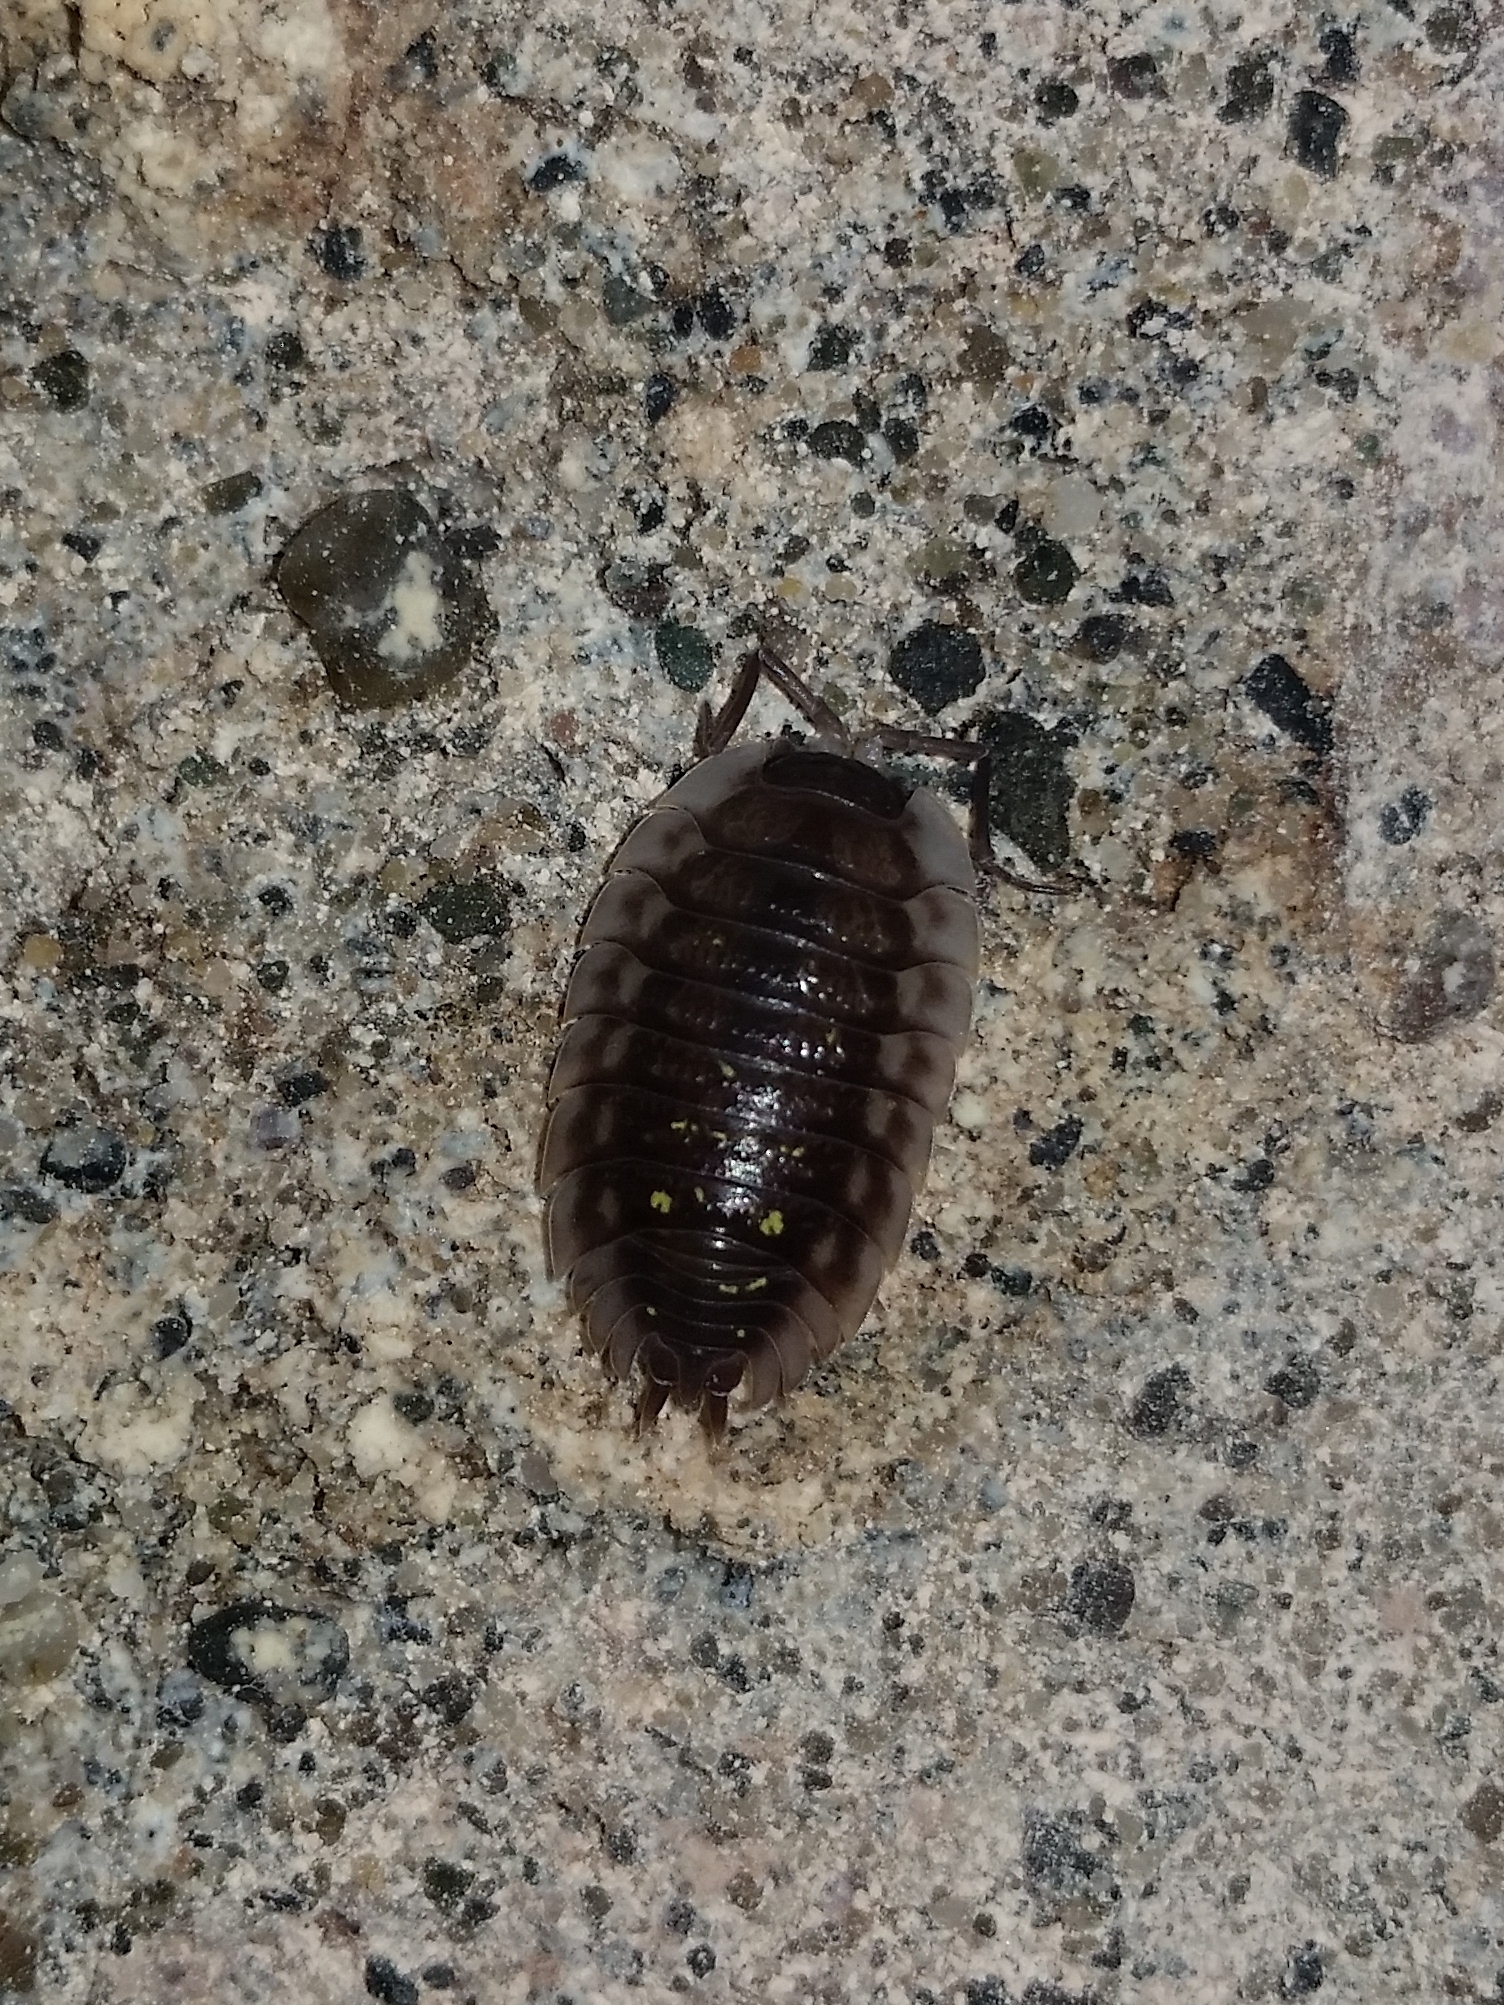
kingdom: Animalia
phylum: Arthropoda
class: Malacostraca
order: Isopoda
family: Oniscidae
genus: Oniscus
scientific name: Oniscus asellus
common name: Common shiny woodlouse
